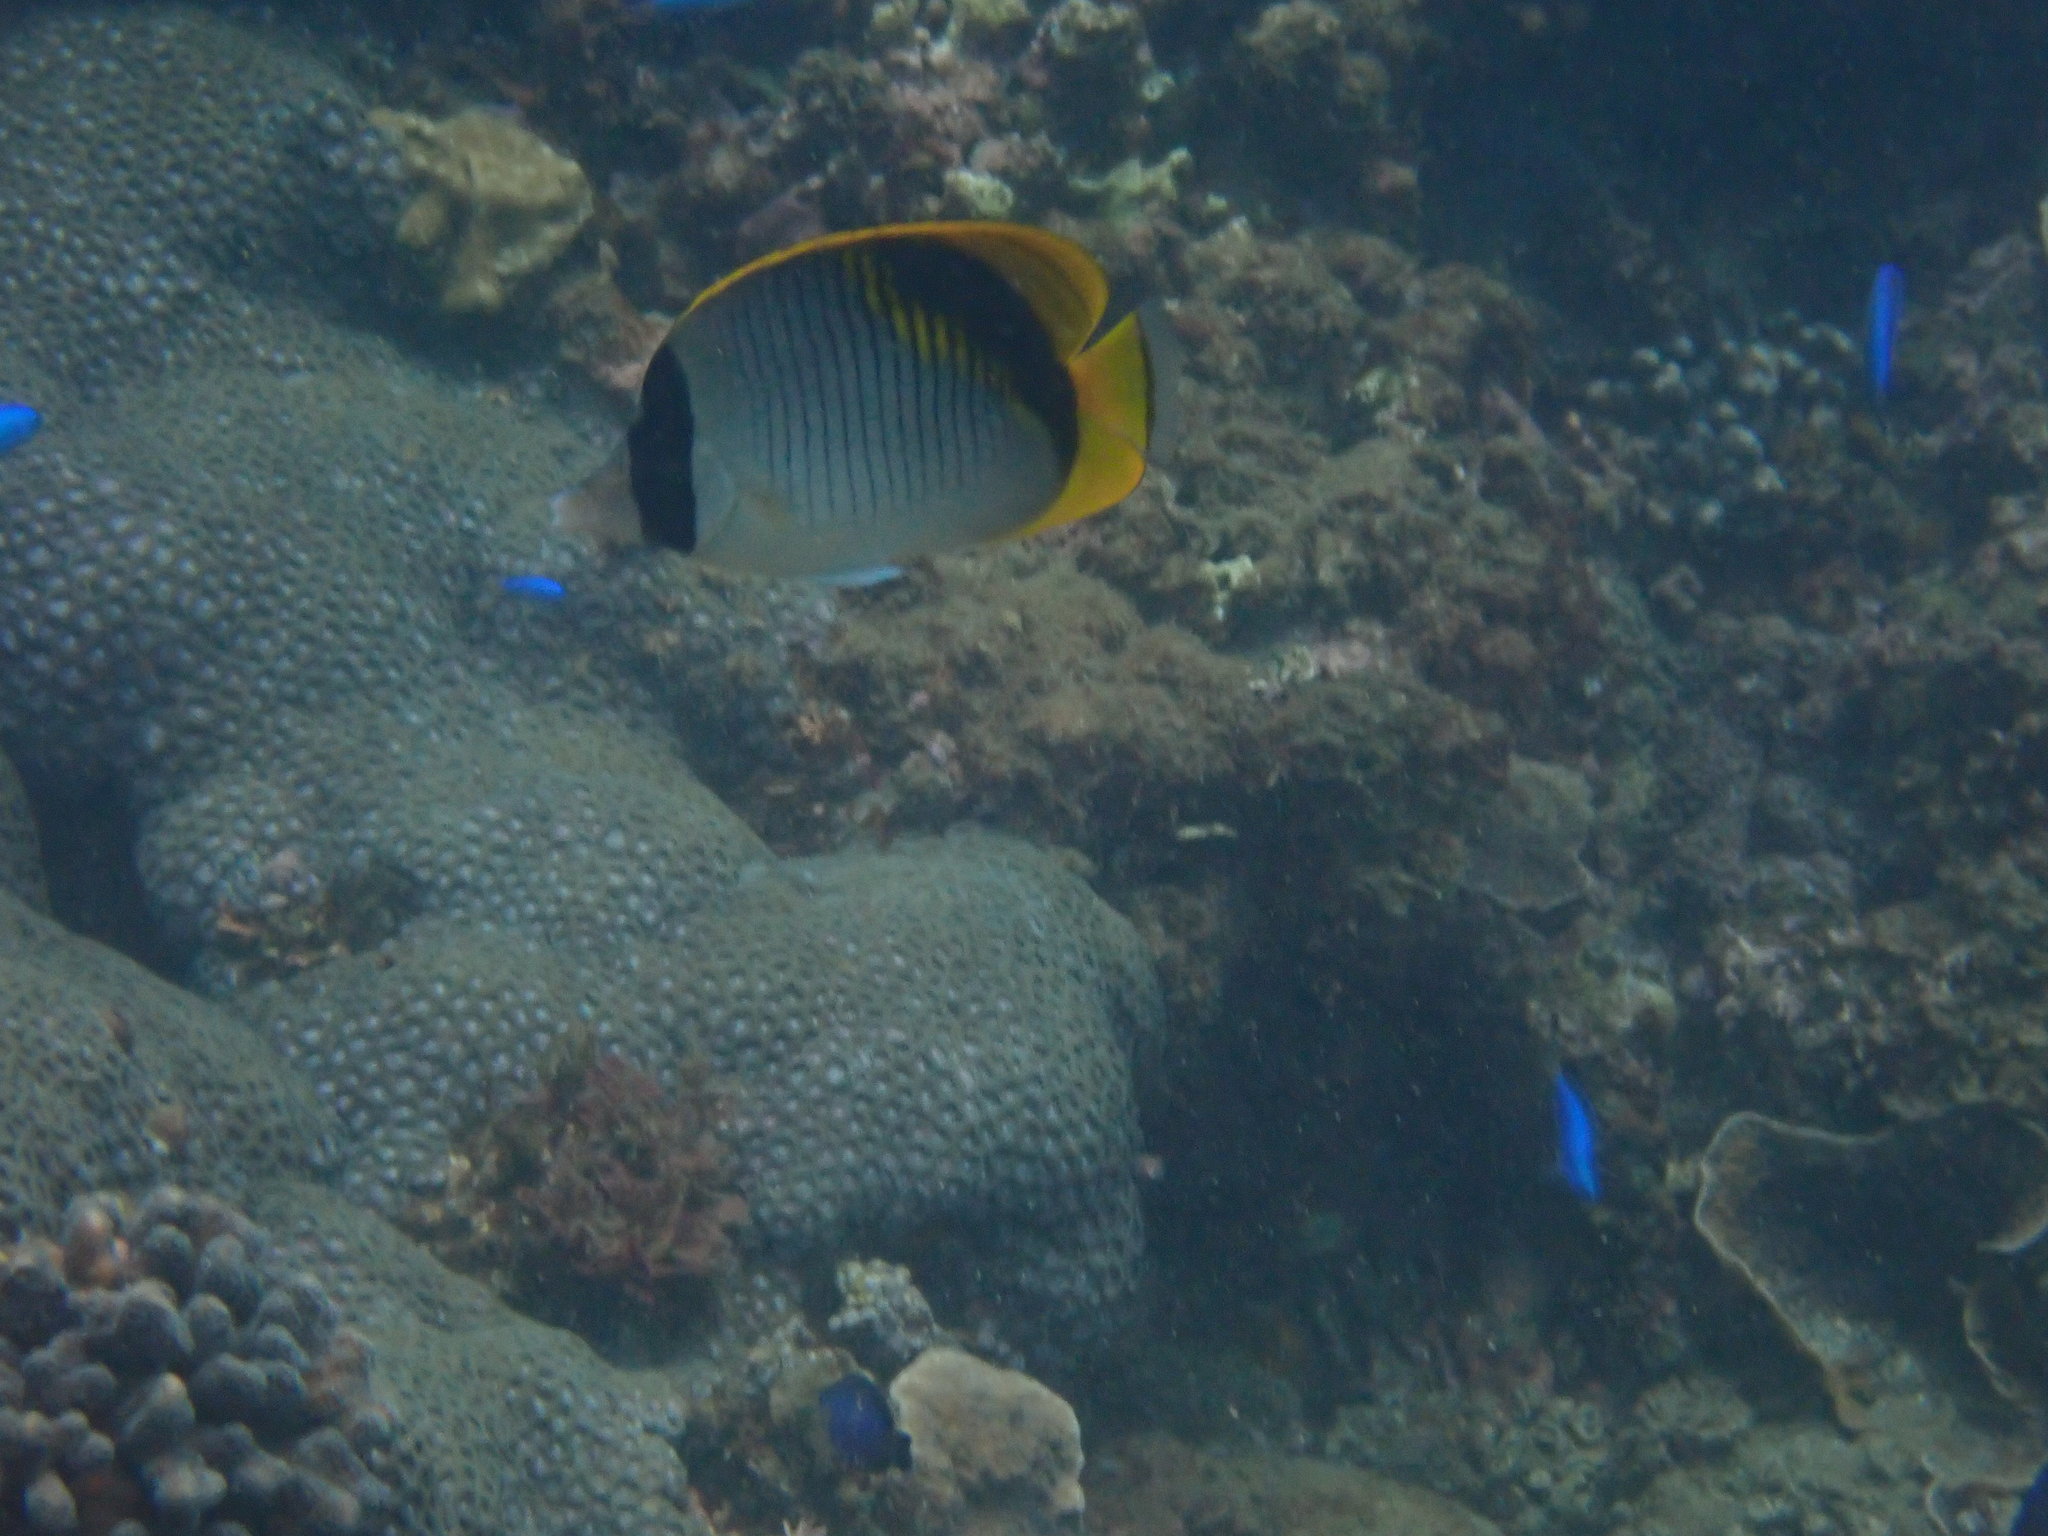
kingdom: Animalia
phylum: Chordata
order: Perciformes
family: Chaetodontidae
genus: Chaetodon
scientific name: Chaetodon lineolatus
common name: Lined butterflyfish
